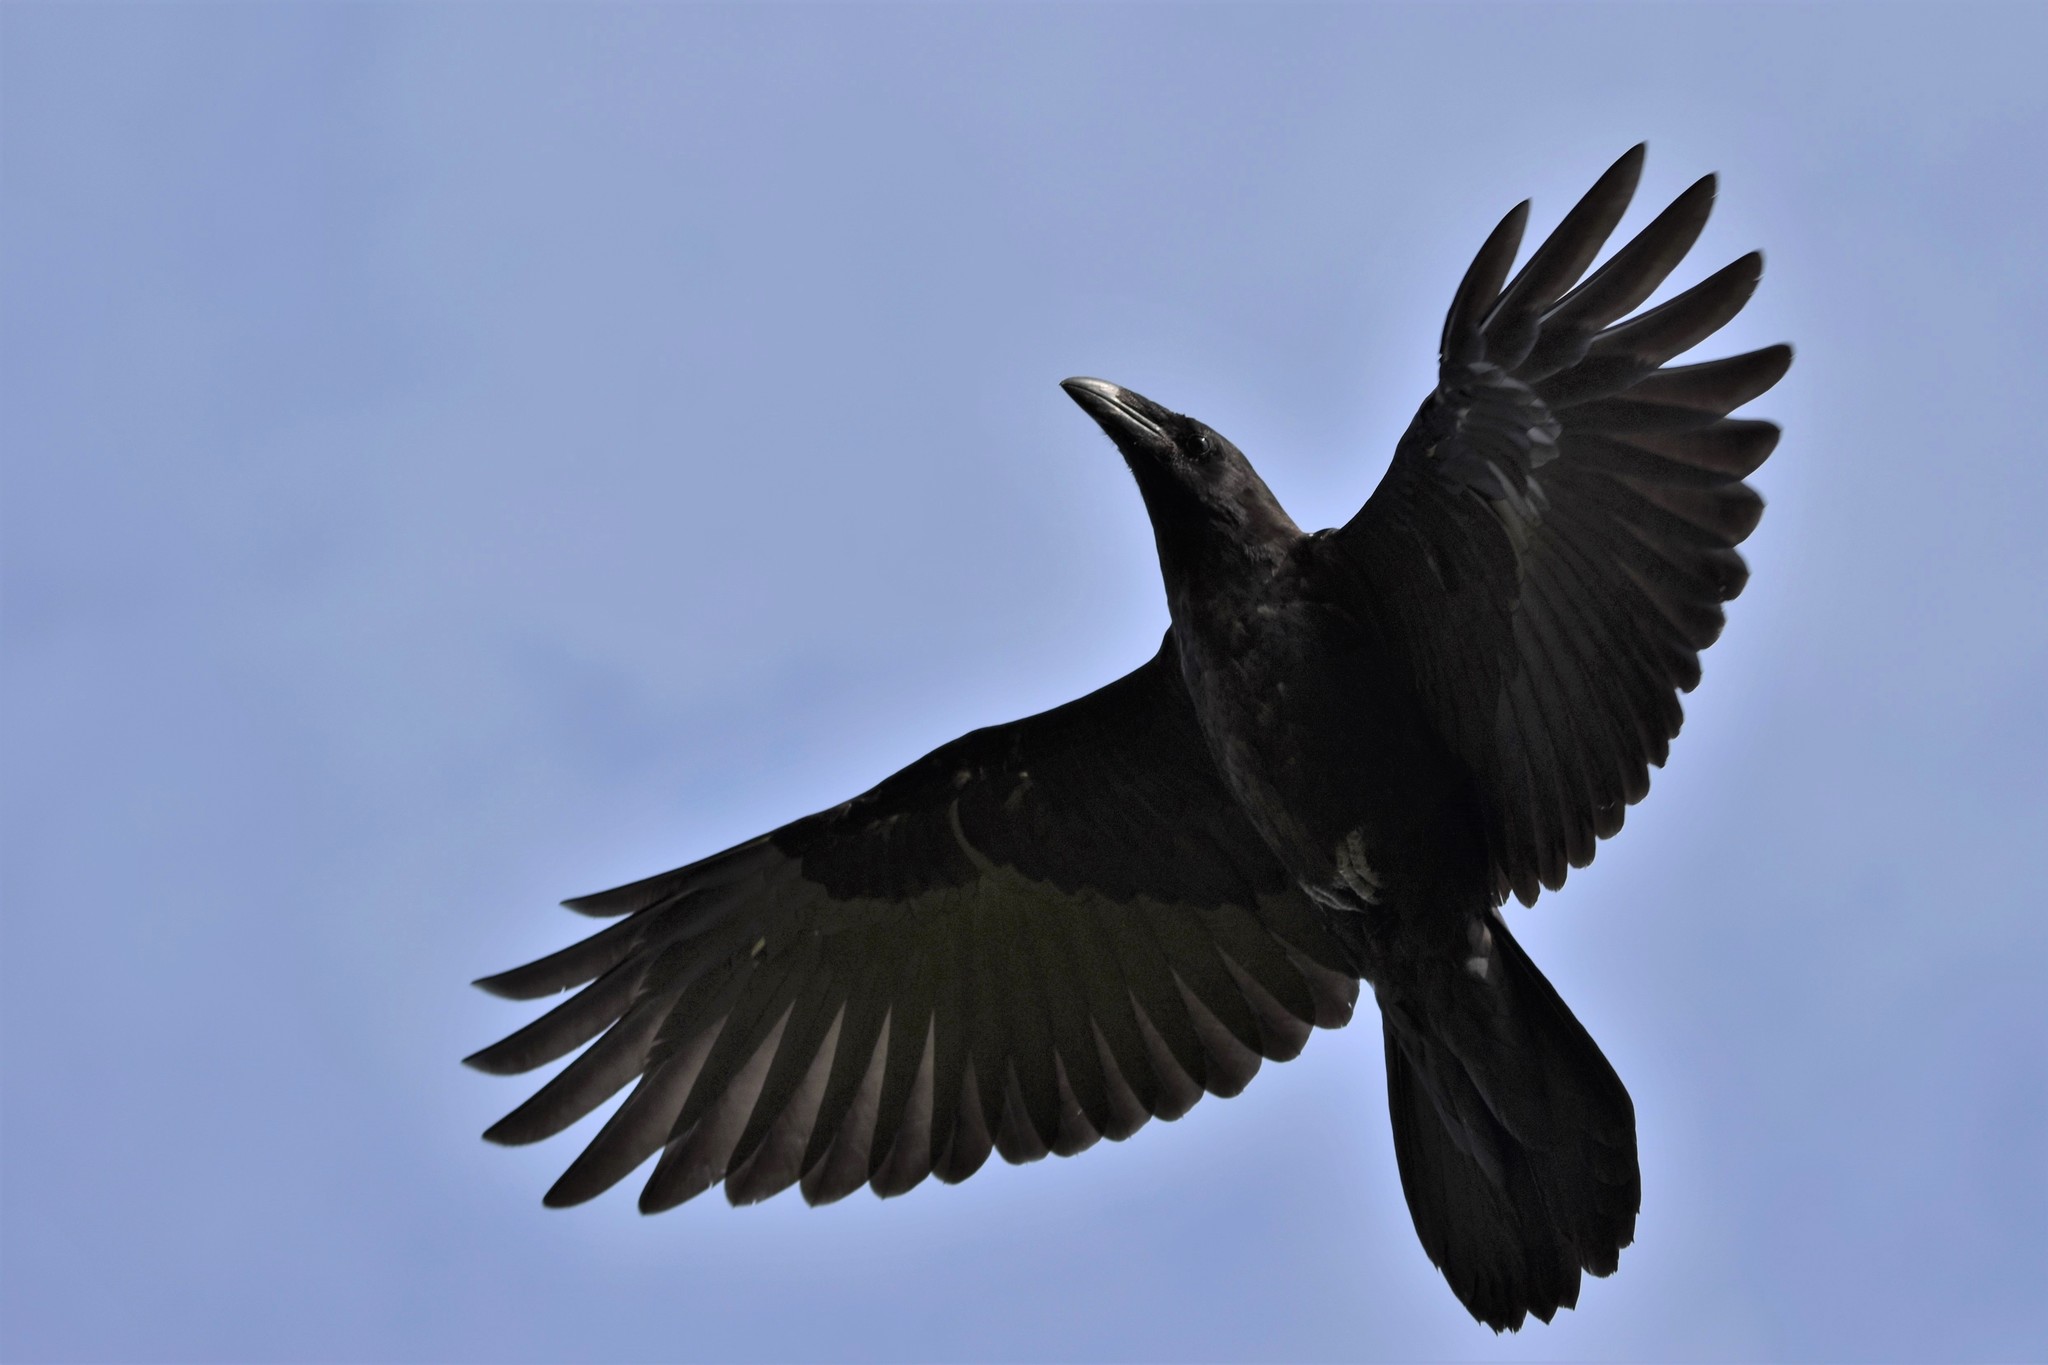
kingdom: Animalia
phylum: Chordata
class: Aves
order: Passeriformes
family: Corvidae
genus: Corvus
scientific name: Corvus corax
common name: Common raven
